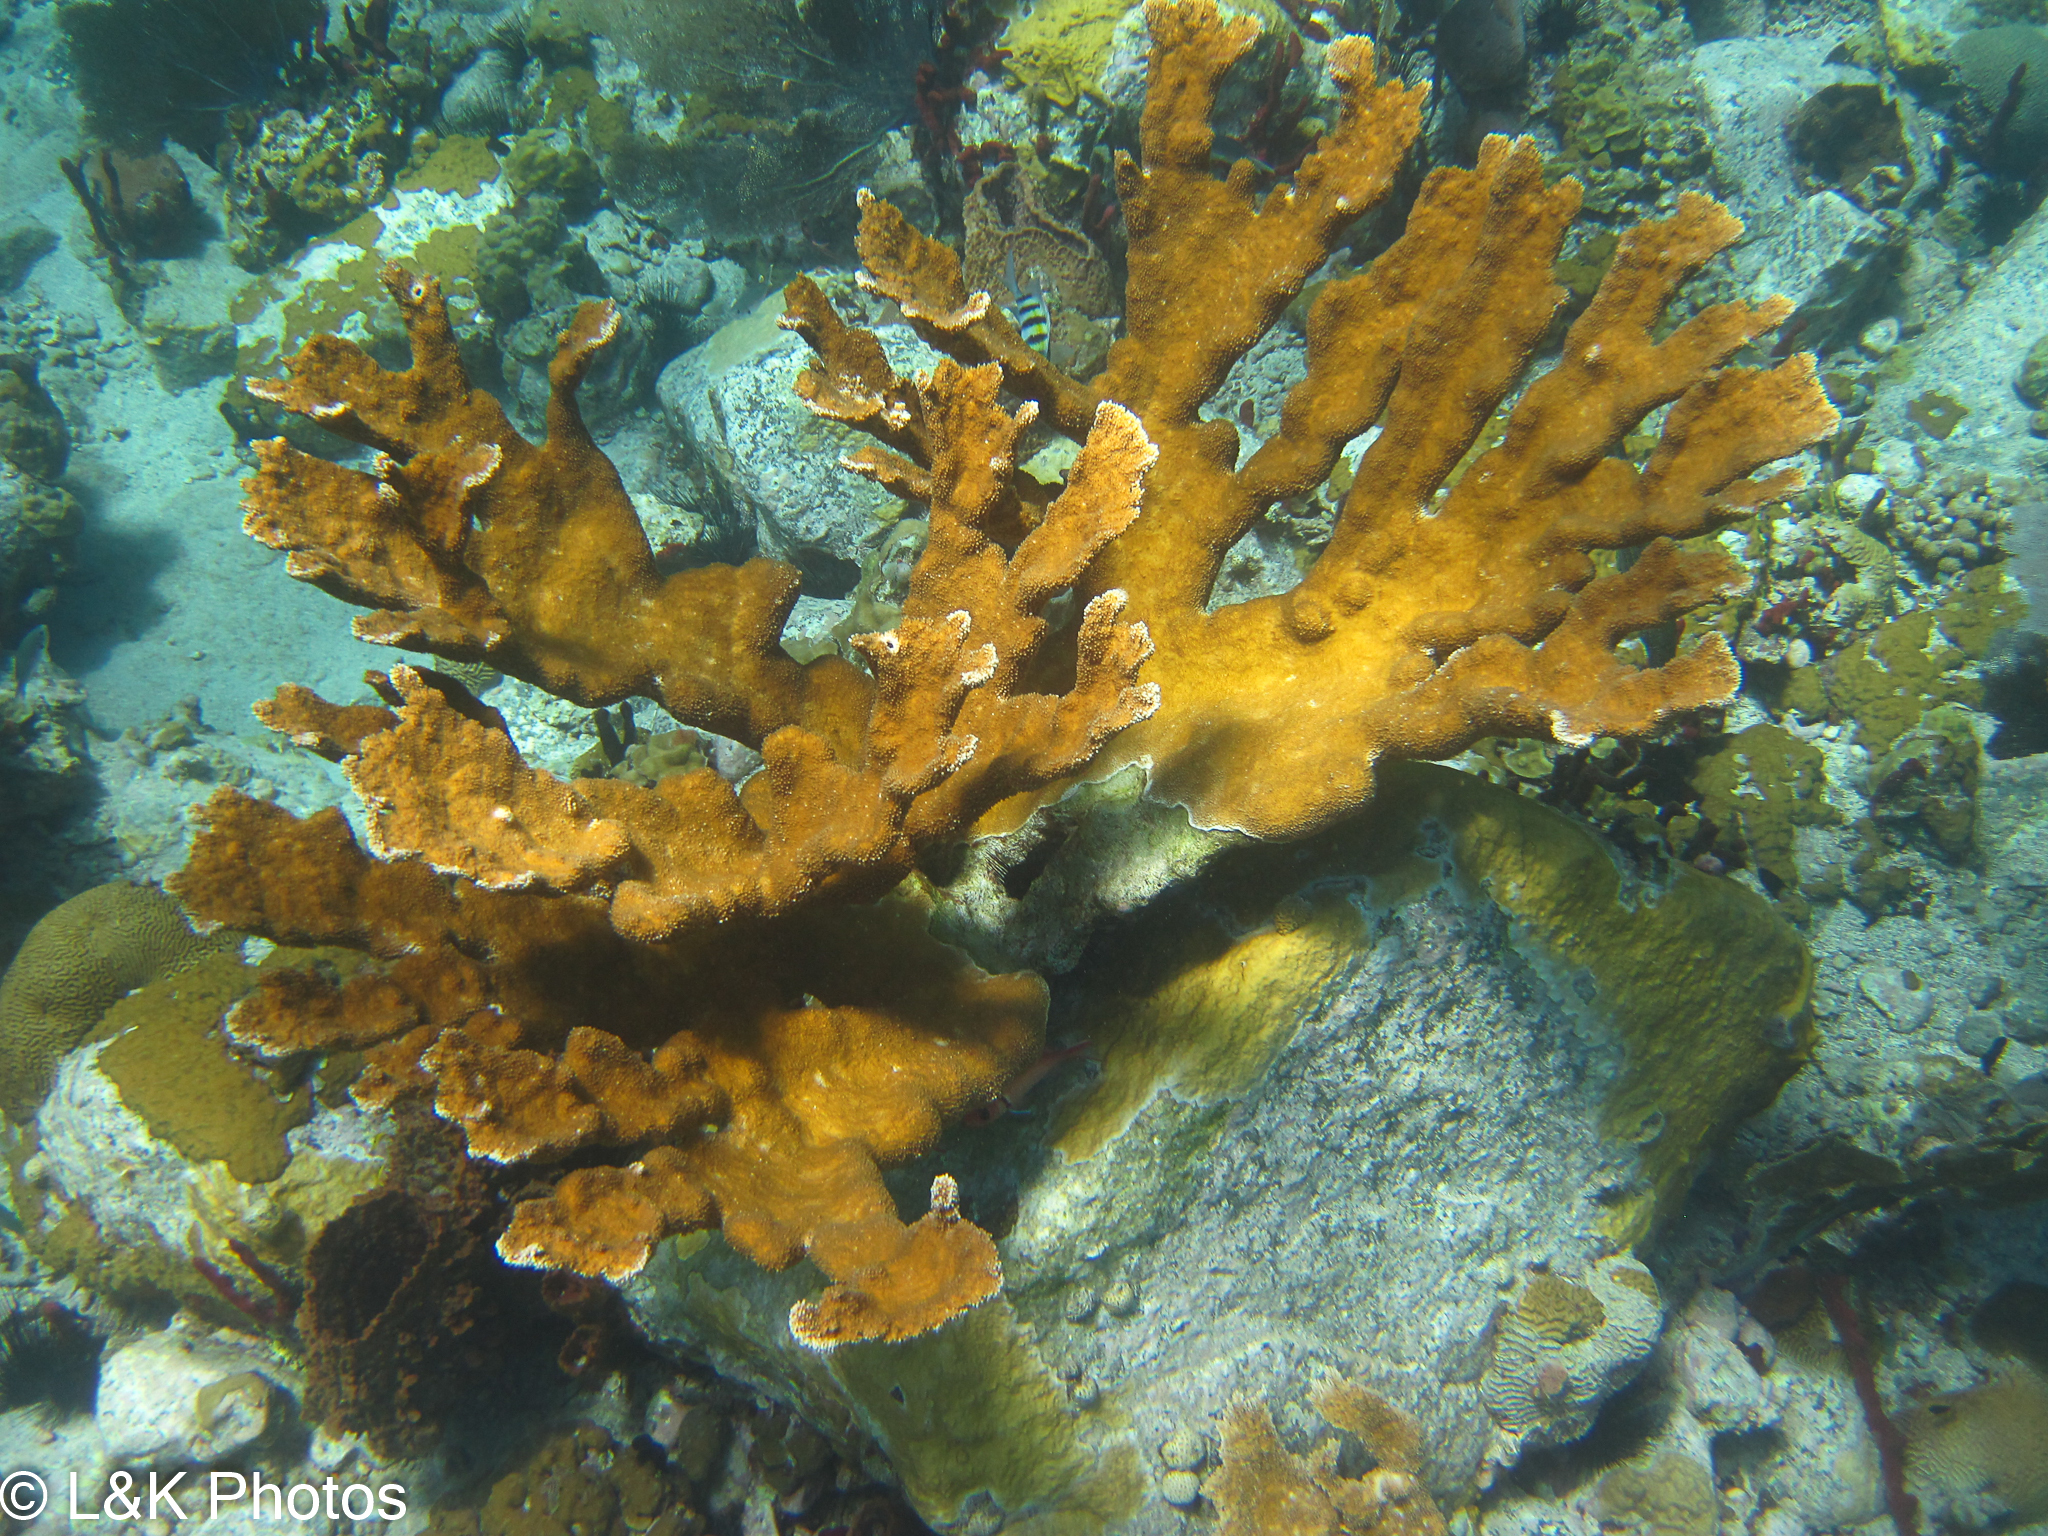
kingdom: Animalia
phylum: Cnidaria
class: Anthozoa
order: Scleractinia
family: Acroporidae
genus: Acropora
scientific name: Acropora palmata
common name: Elkhorn coral
